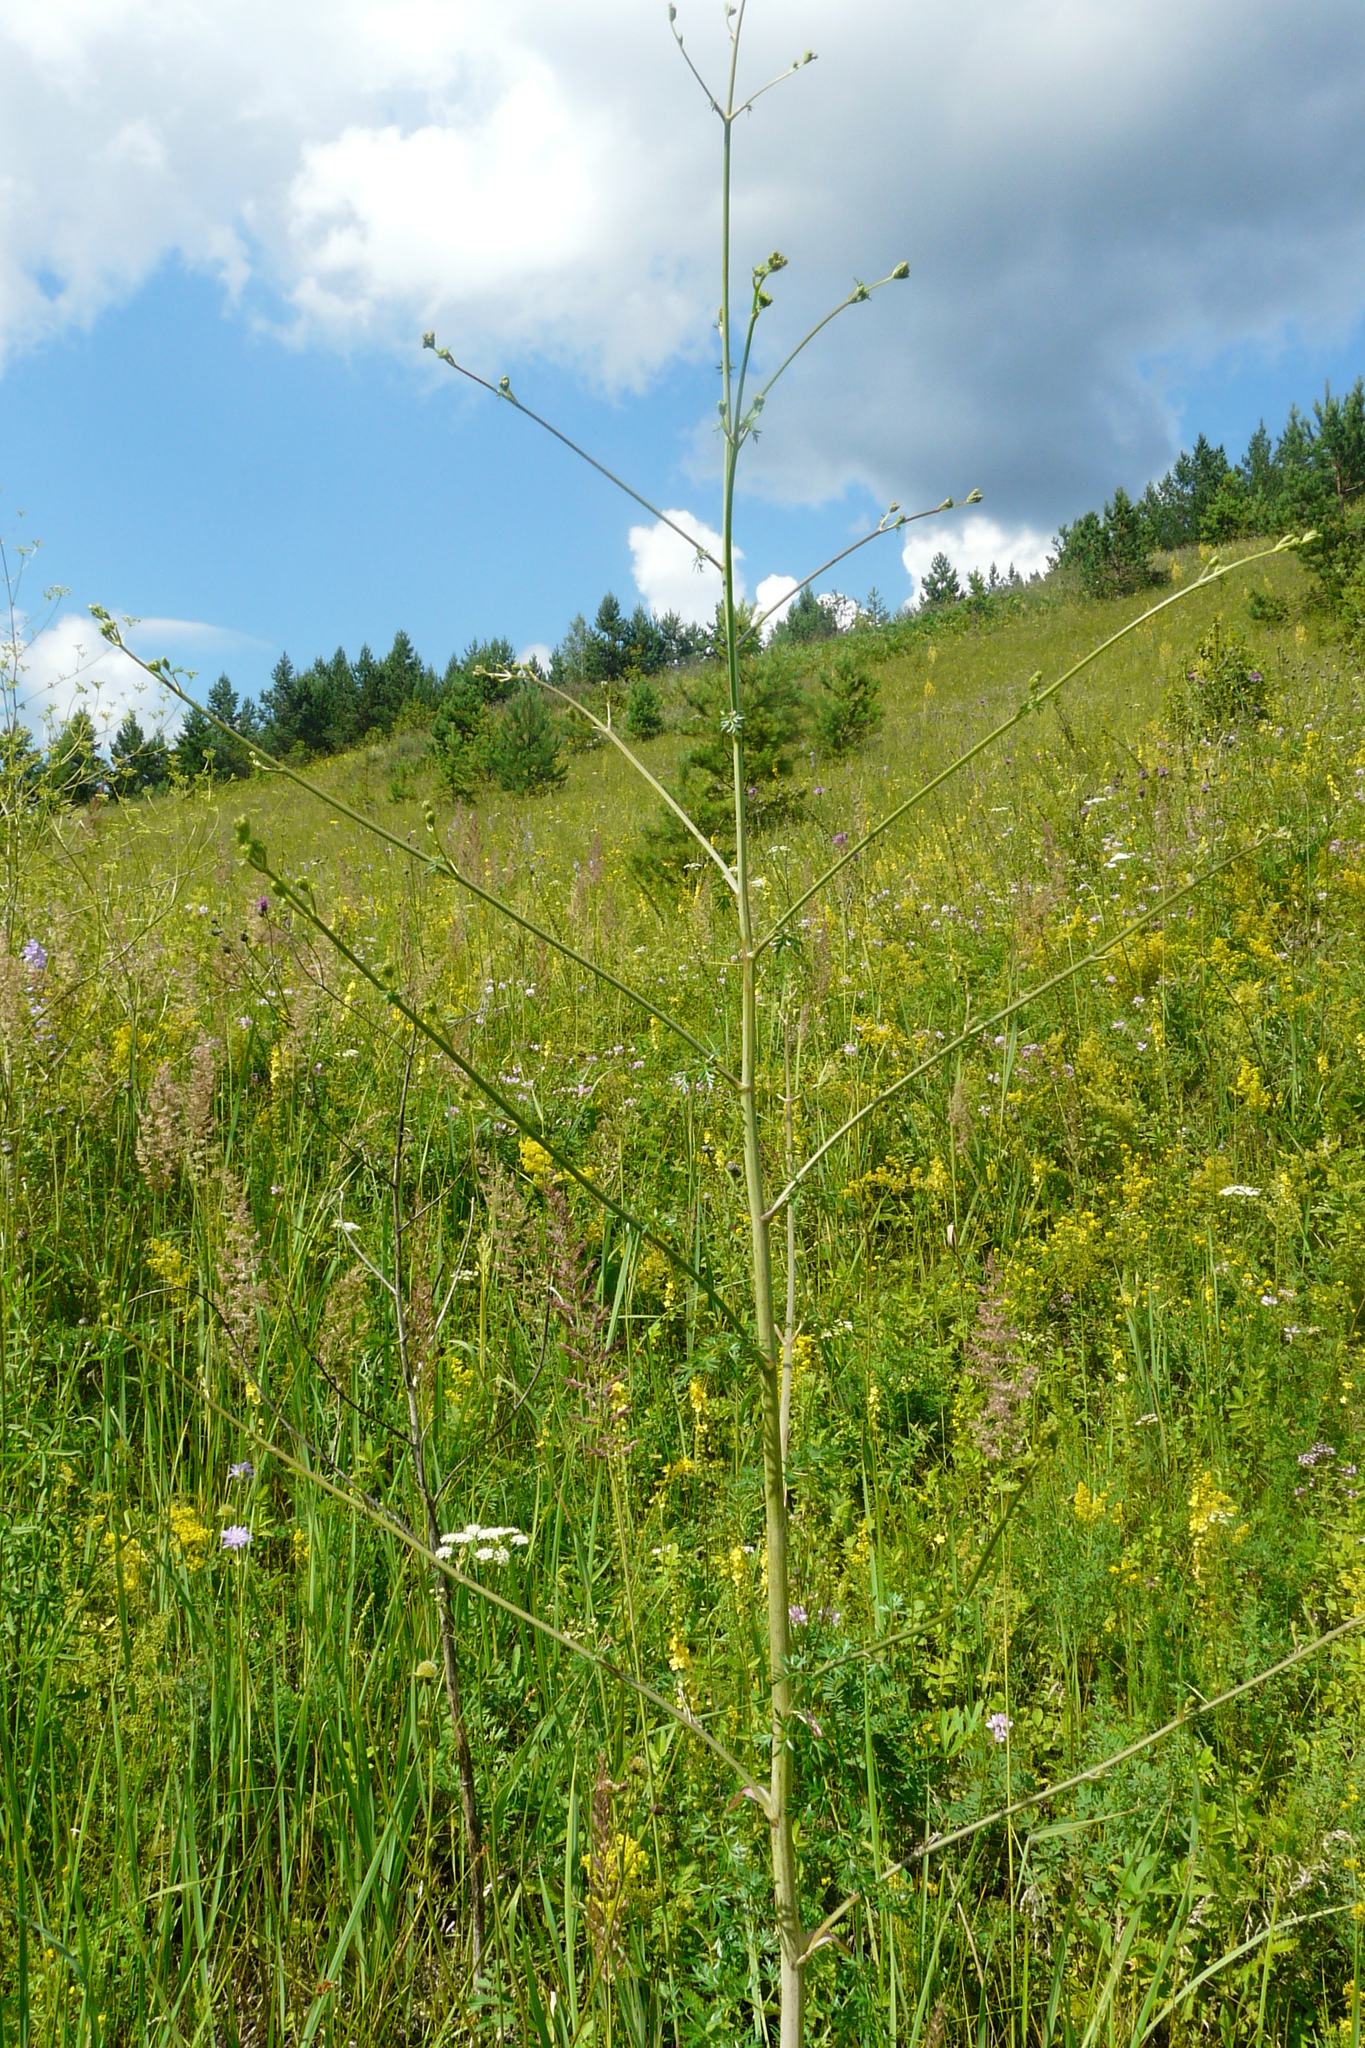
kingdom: Plantae
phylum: Tracheophyta
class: Magnoliopsida
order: Apiales
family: Apiaceae
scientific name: Apiaceae
